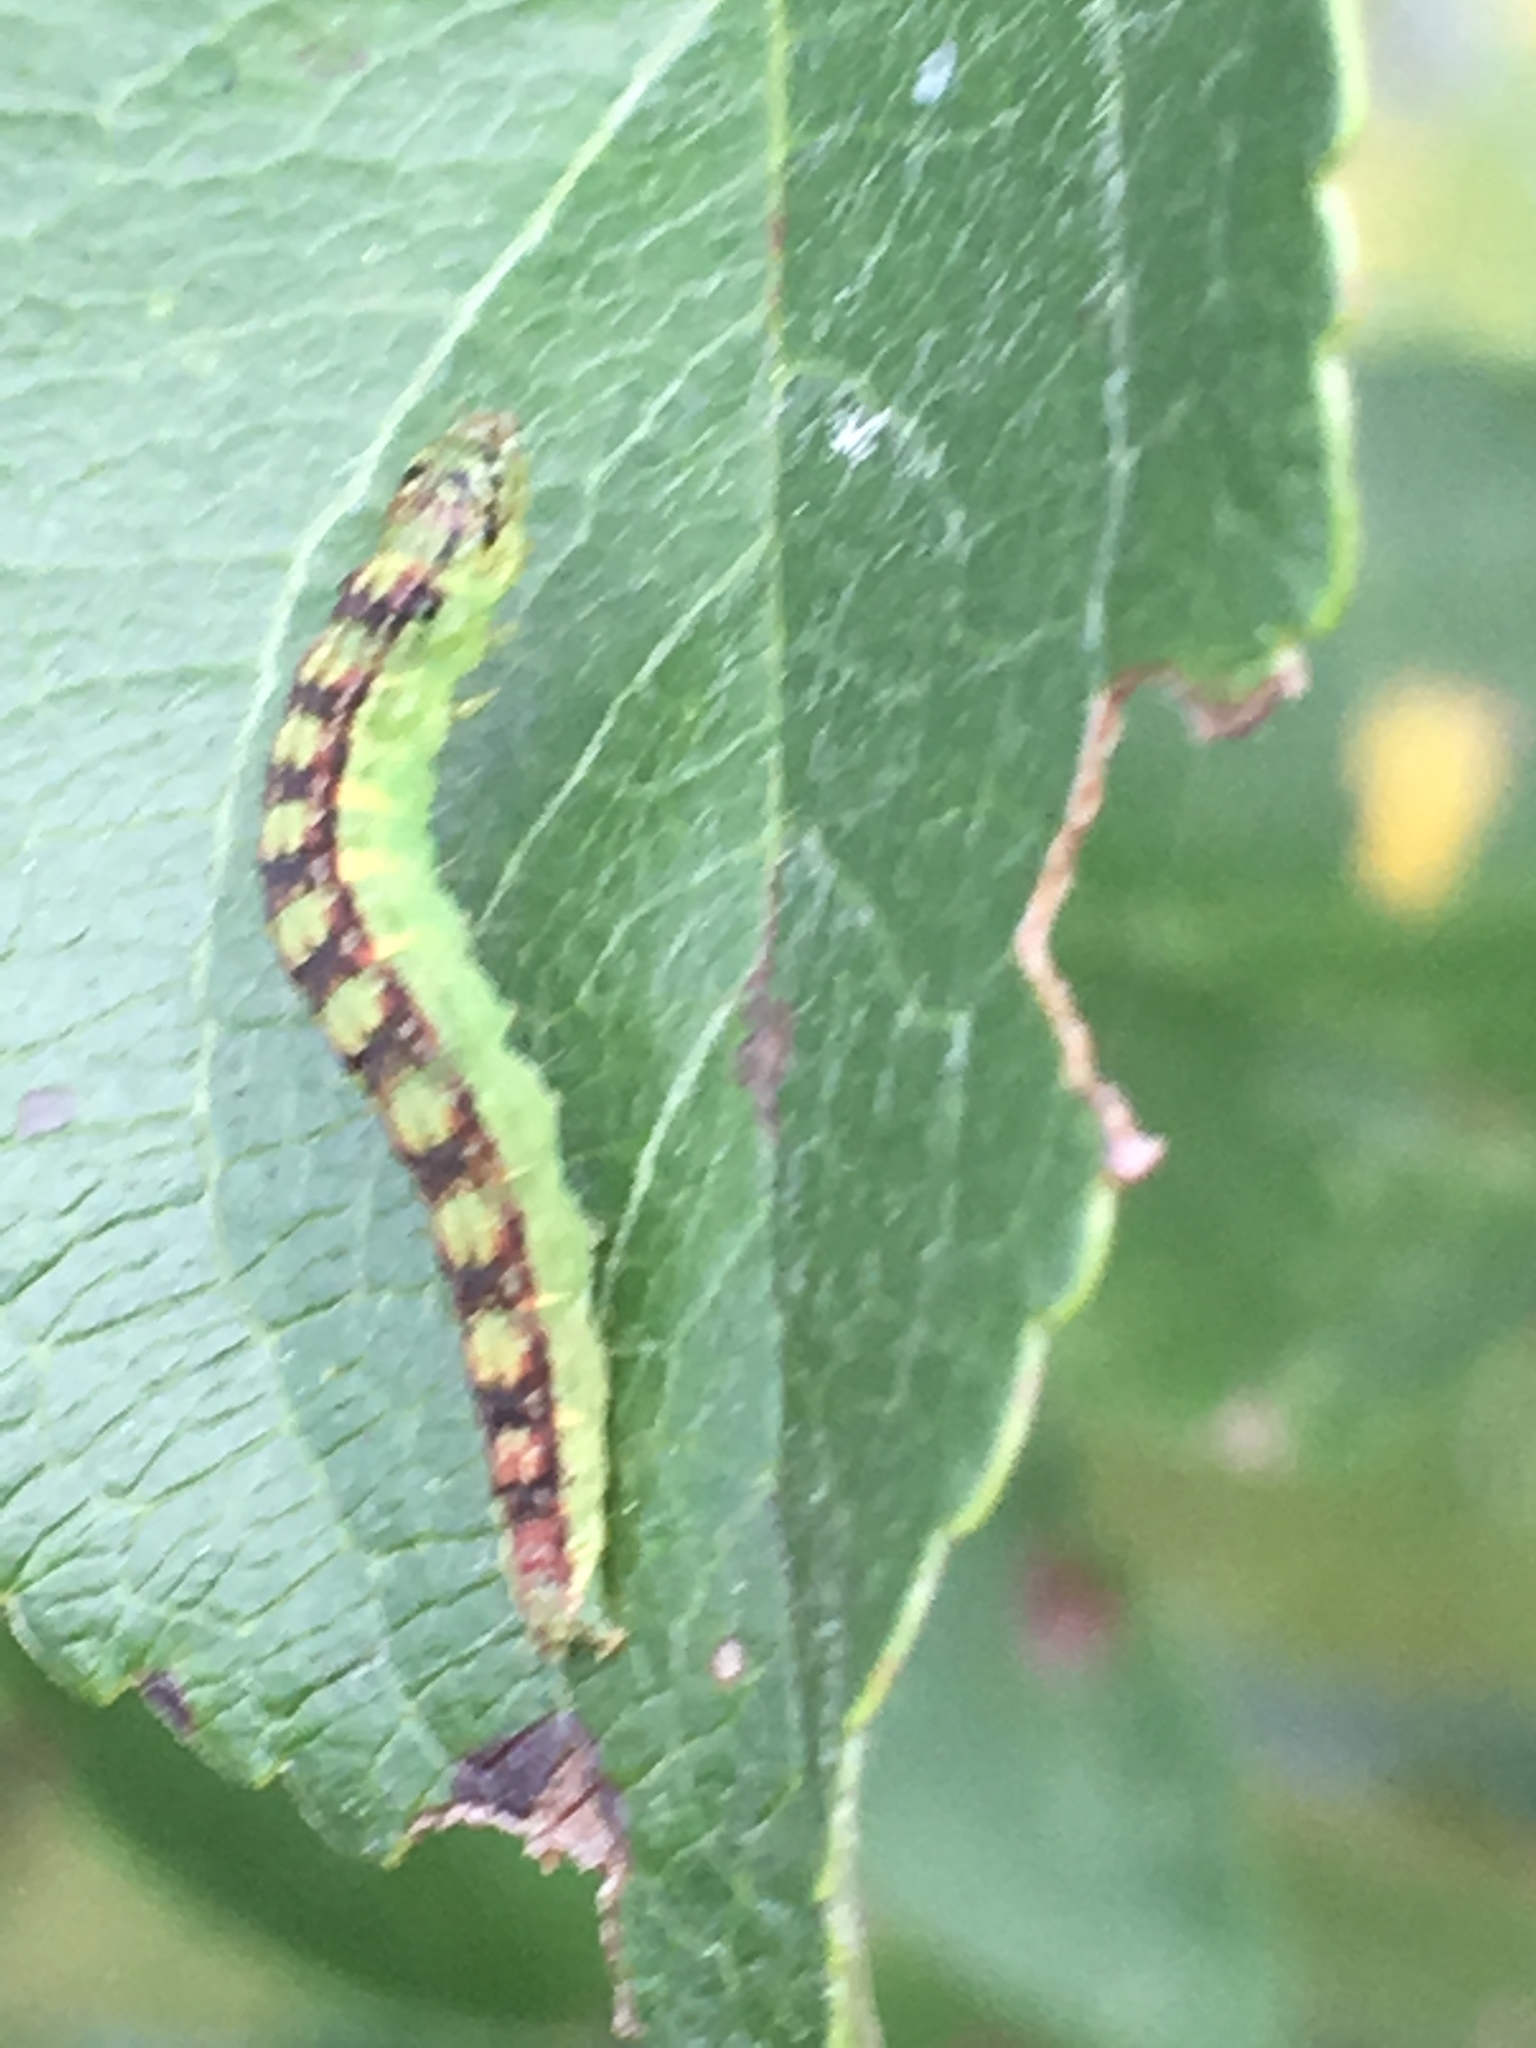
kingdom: Animalia
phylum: Arthropoda
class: Insecta
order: Lepidoptera
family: Pyralidae
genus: Oreana
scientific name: Oreana unicolorella
